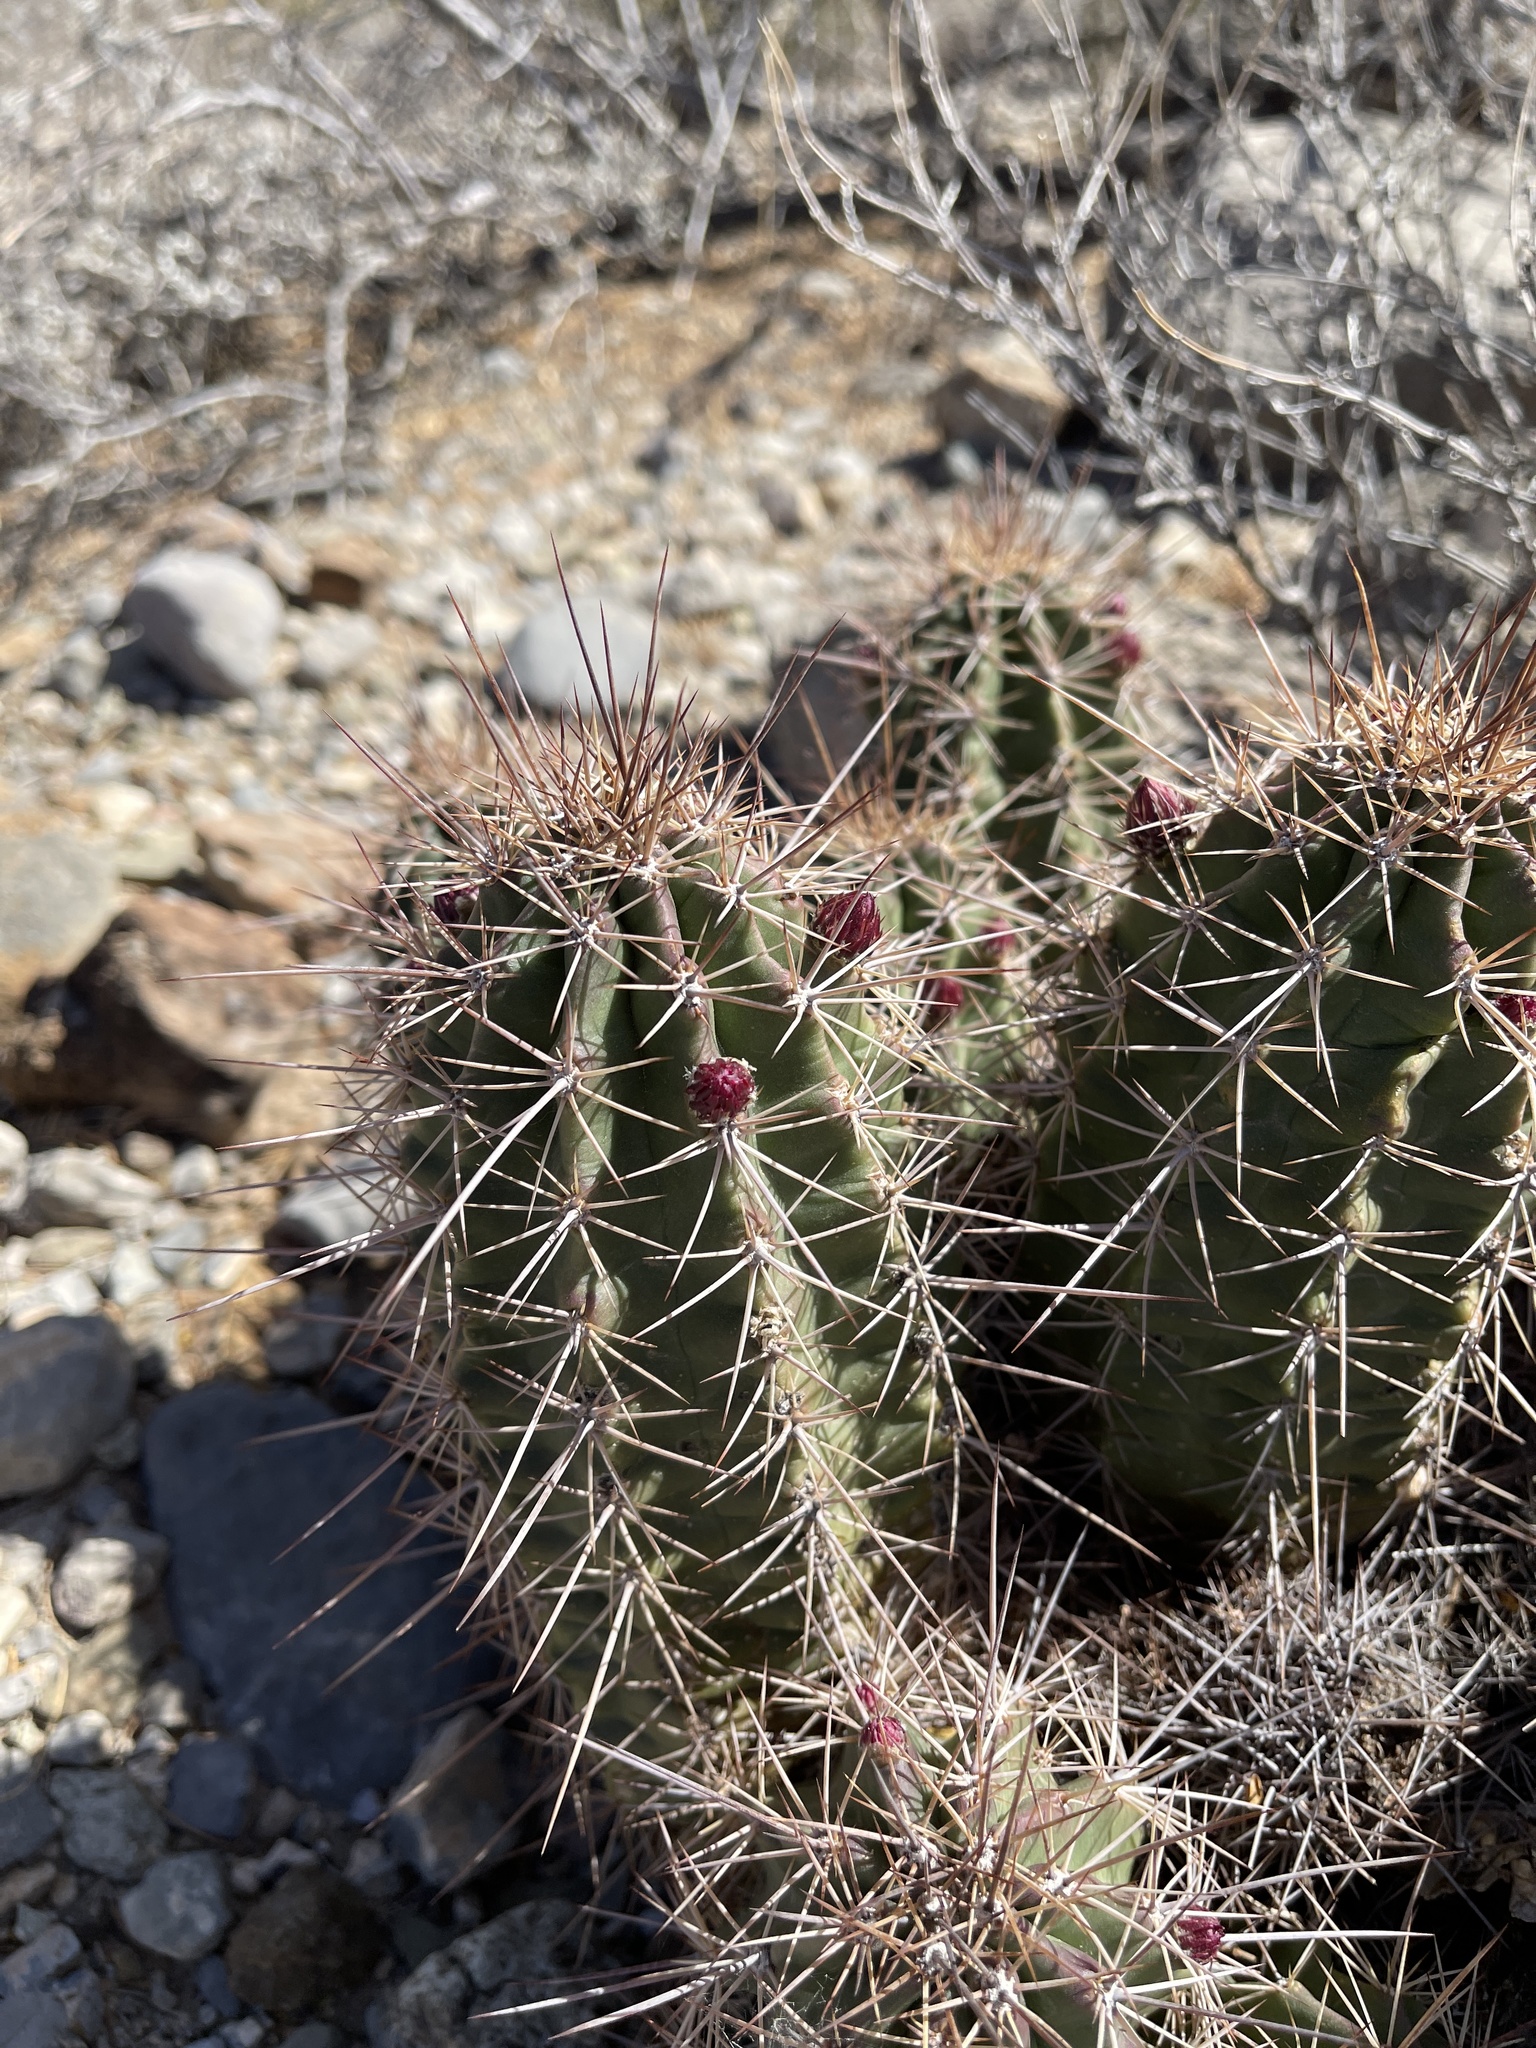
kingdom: Plantae
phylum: Tracheophyta
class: Magnoliopsida
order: Caryophyllales
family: Cactaceae
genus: Echinocereus
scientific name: Echinocereus coccineus
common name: Scarlet hedgehog cactus
